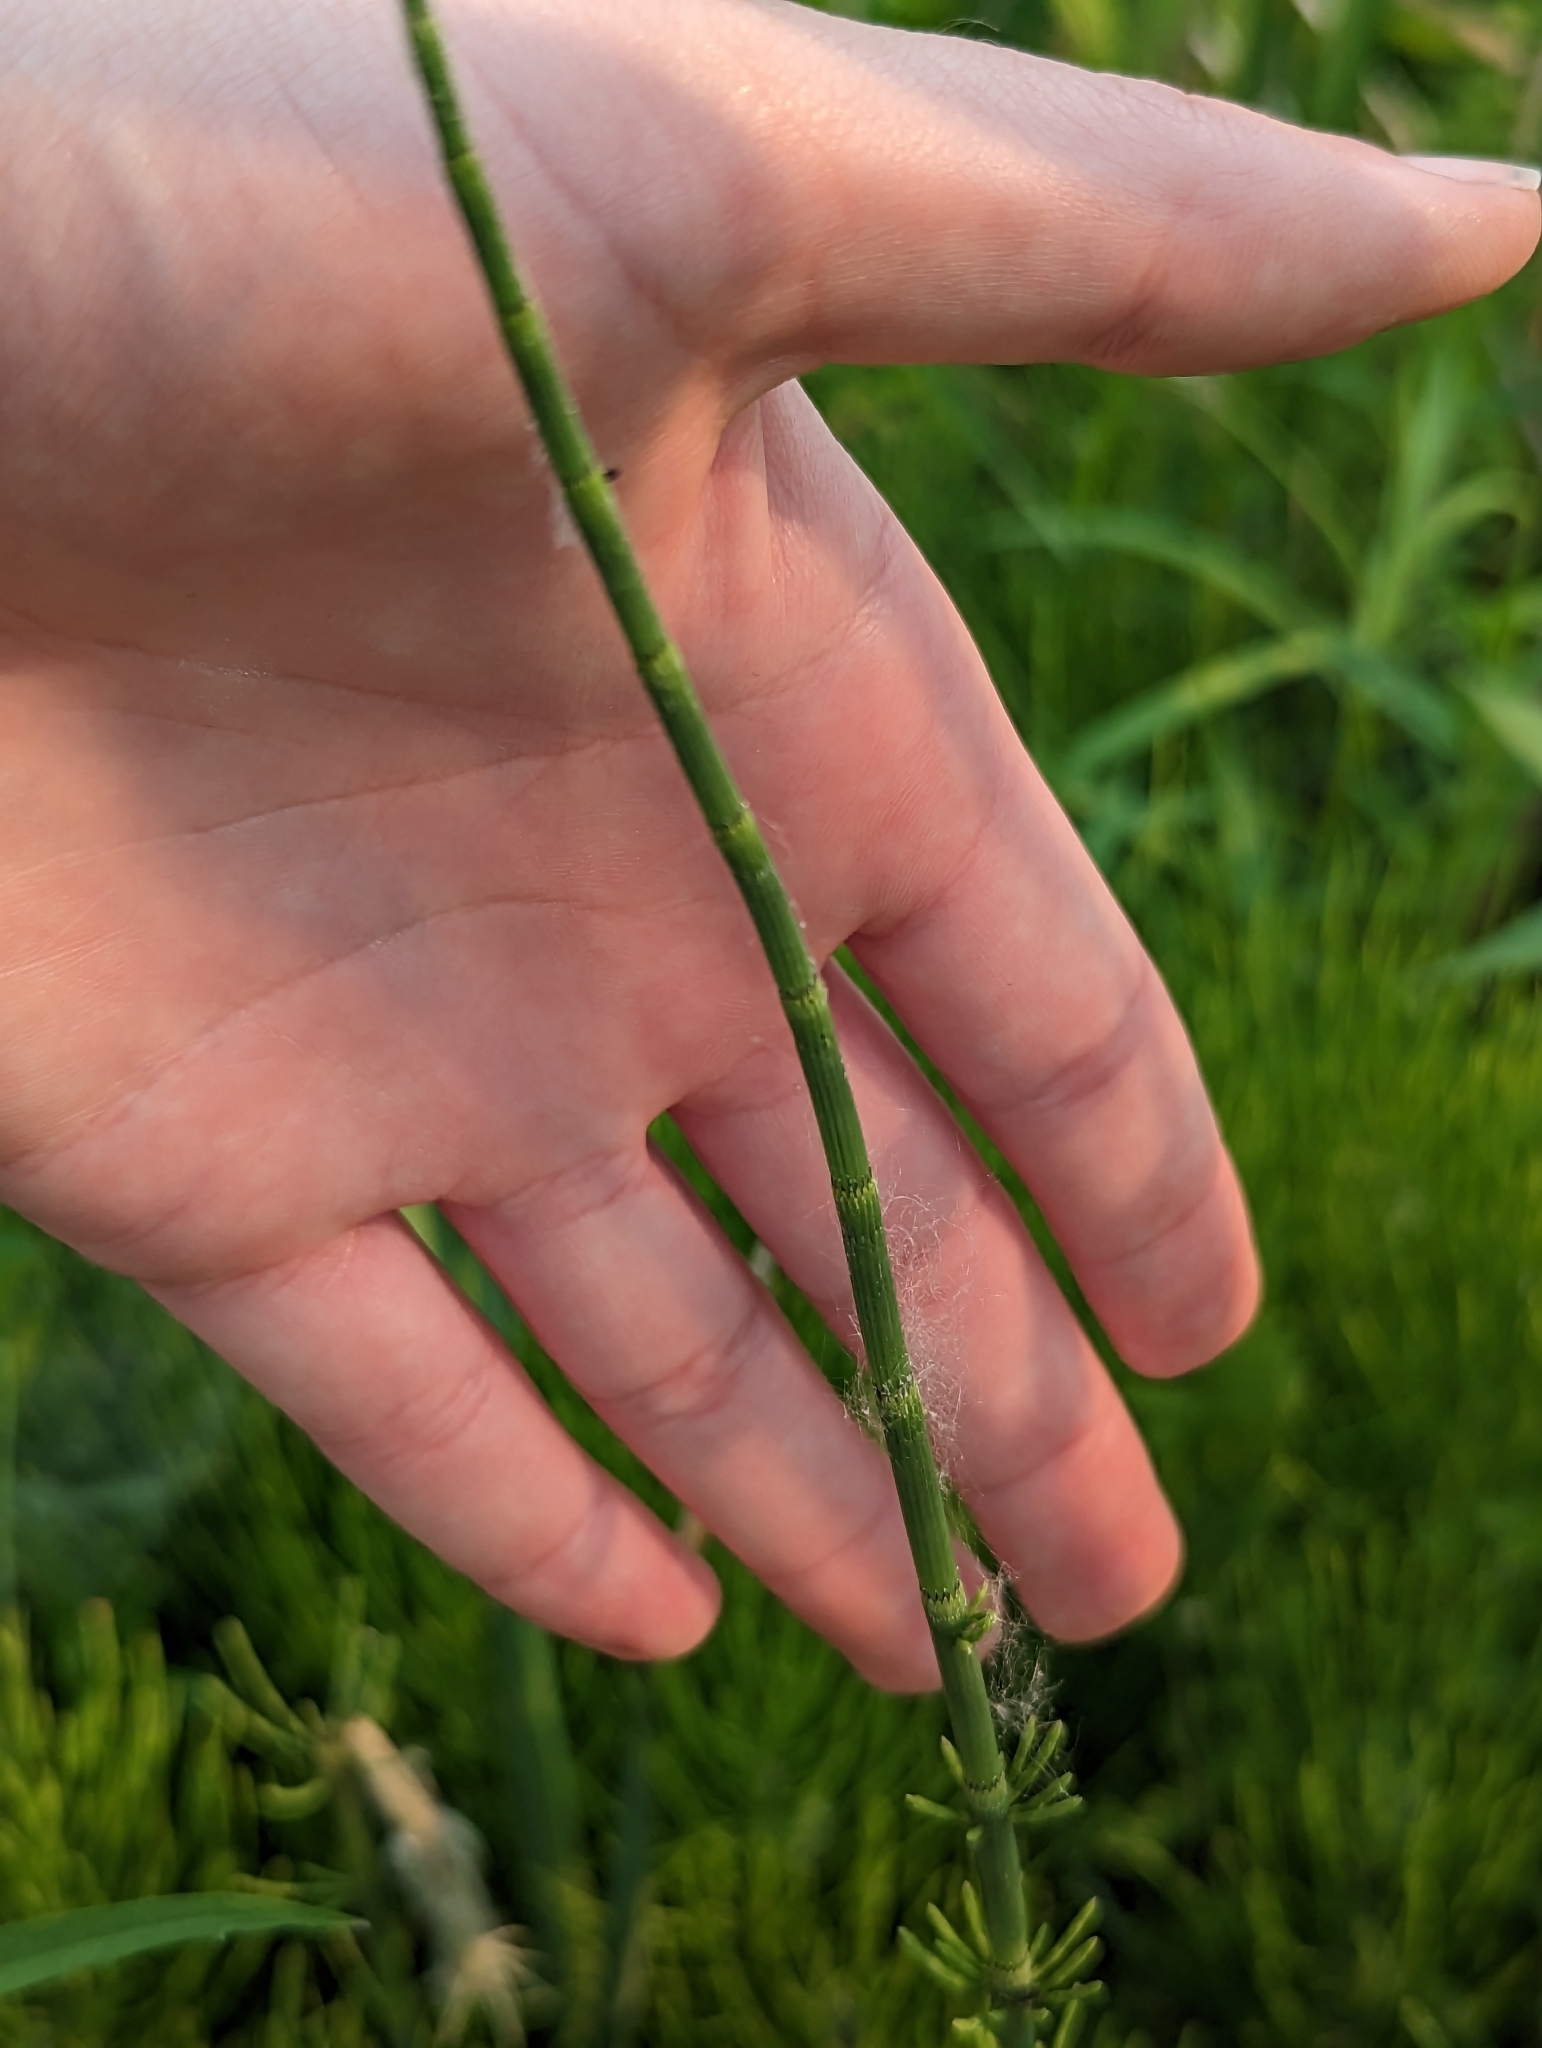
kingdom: Plantae
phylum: Tracheophyta
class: Polypodiopsida
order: Equisetales
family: Equisetaceae
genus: Equisetum
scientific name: Equisetum fluviatile
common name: Water horsetail
